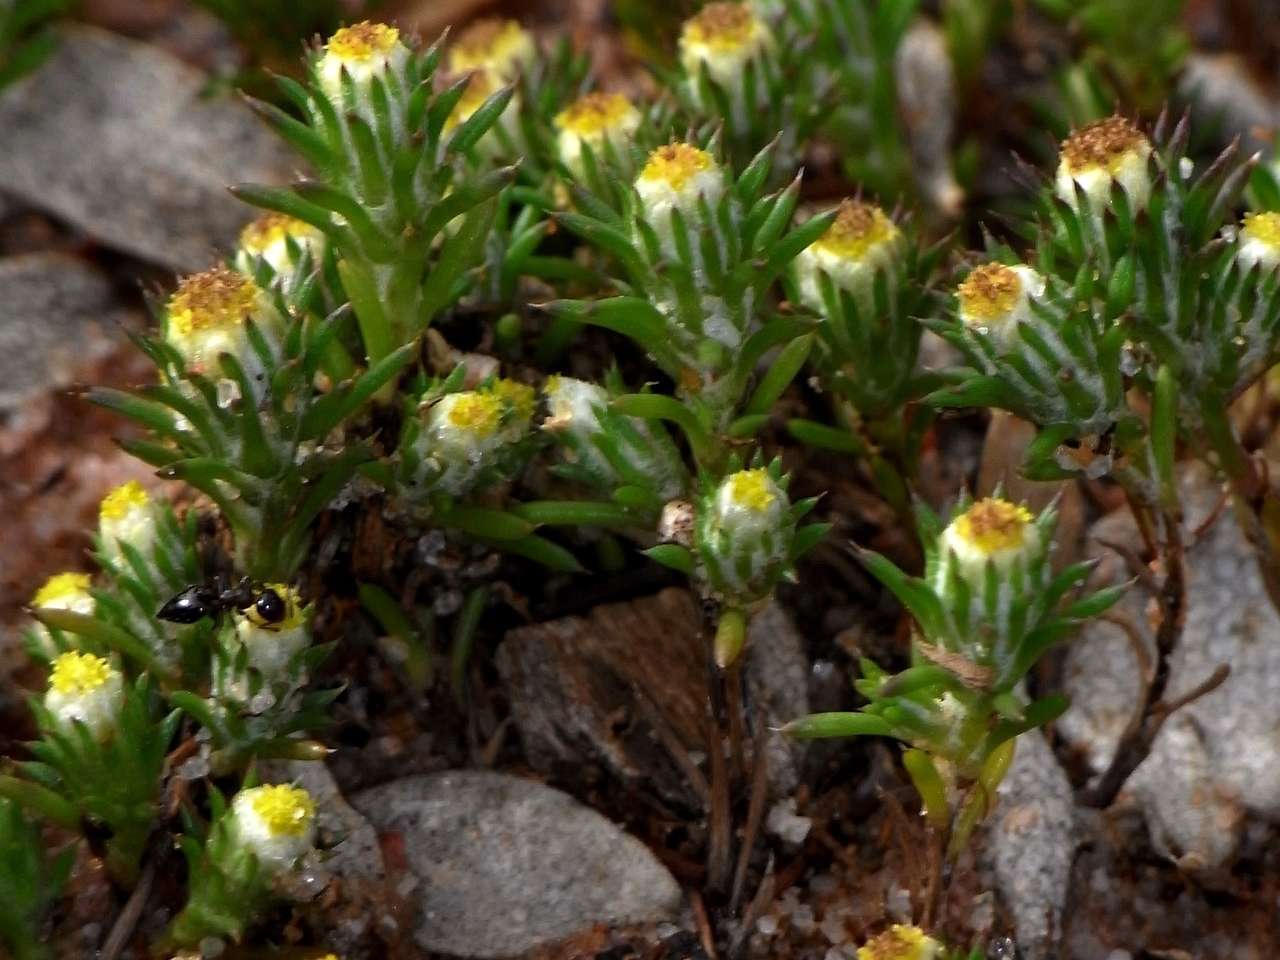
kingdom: Plantae
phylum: Tracheophyta
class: Magnoliopsida
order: Asterales
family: Asteraceae
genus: Pogonolepis
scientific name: Pogonolepis muelleriana
